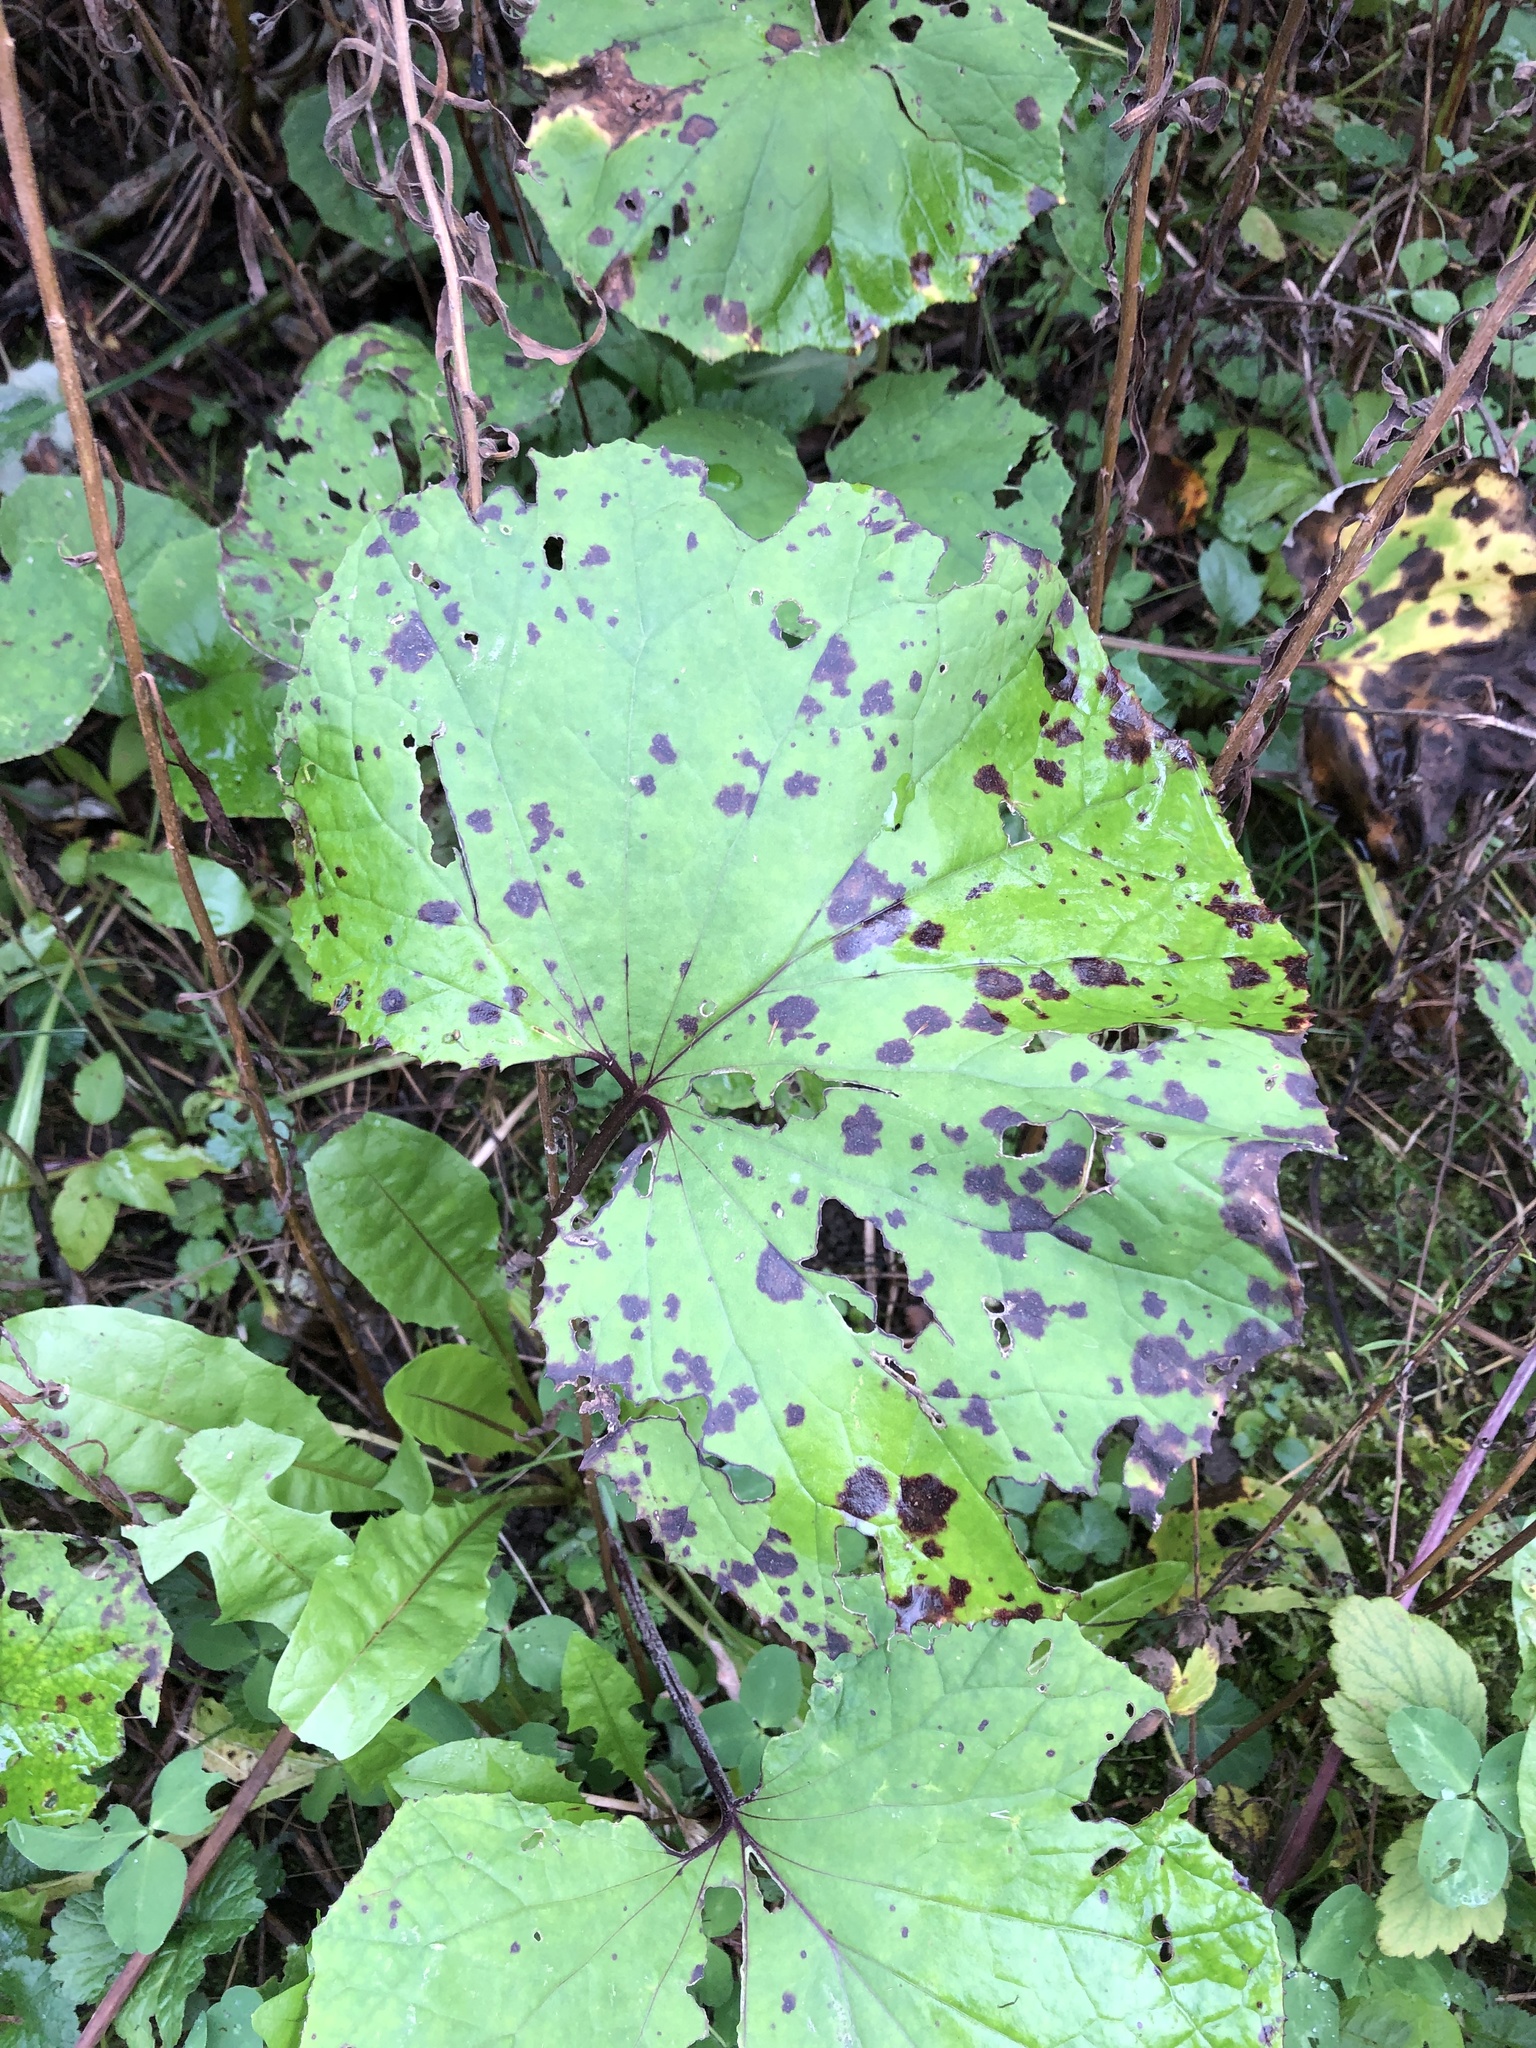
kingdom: Plantae
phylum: Tracheophyta
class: Magnoliopsida
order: Asterales
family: Asteraceae
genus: Tussilago
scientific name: Tussilago farfara
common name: Coltsfoot
